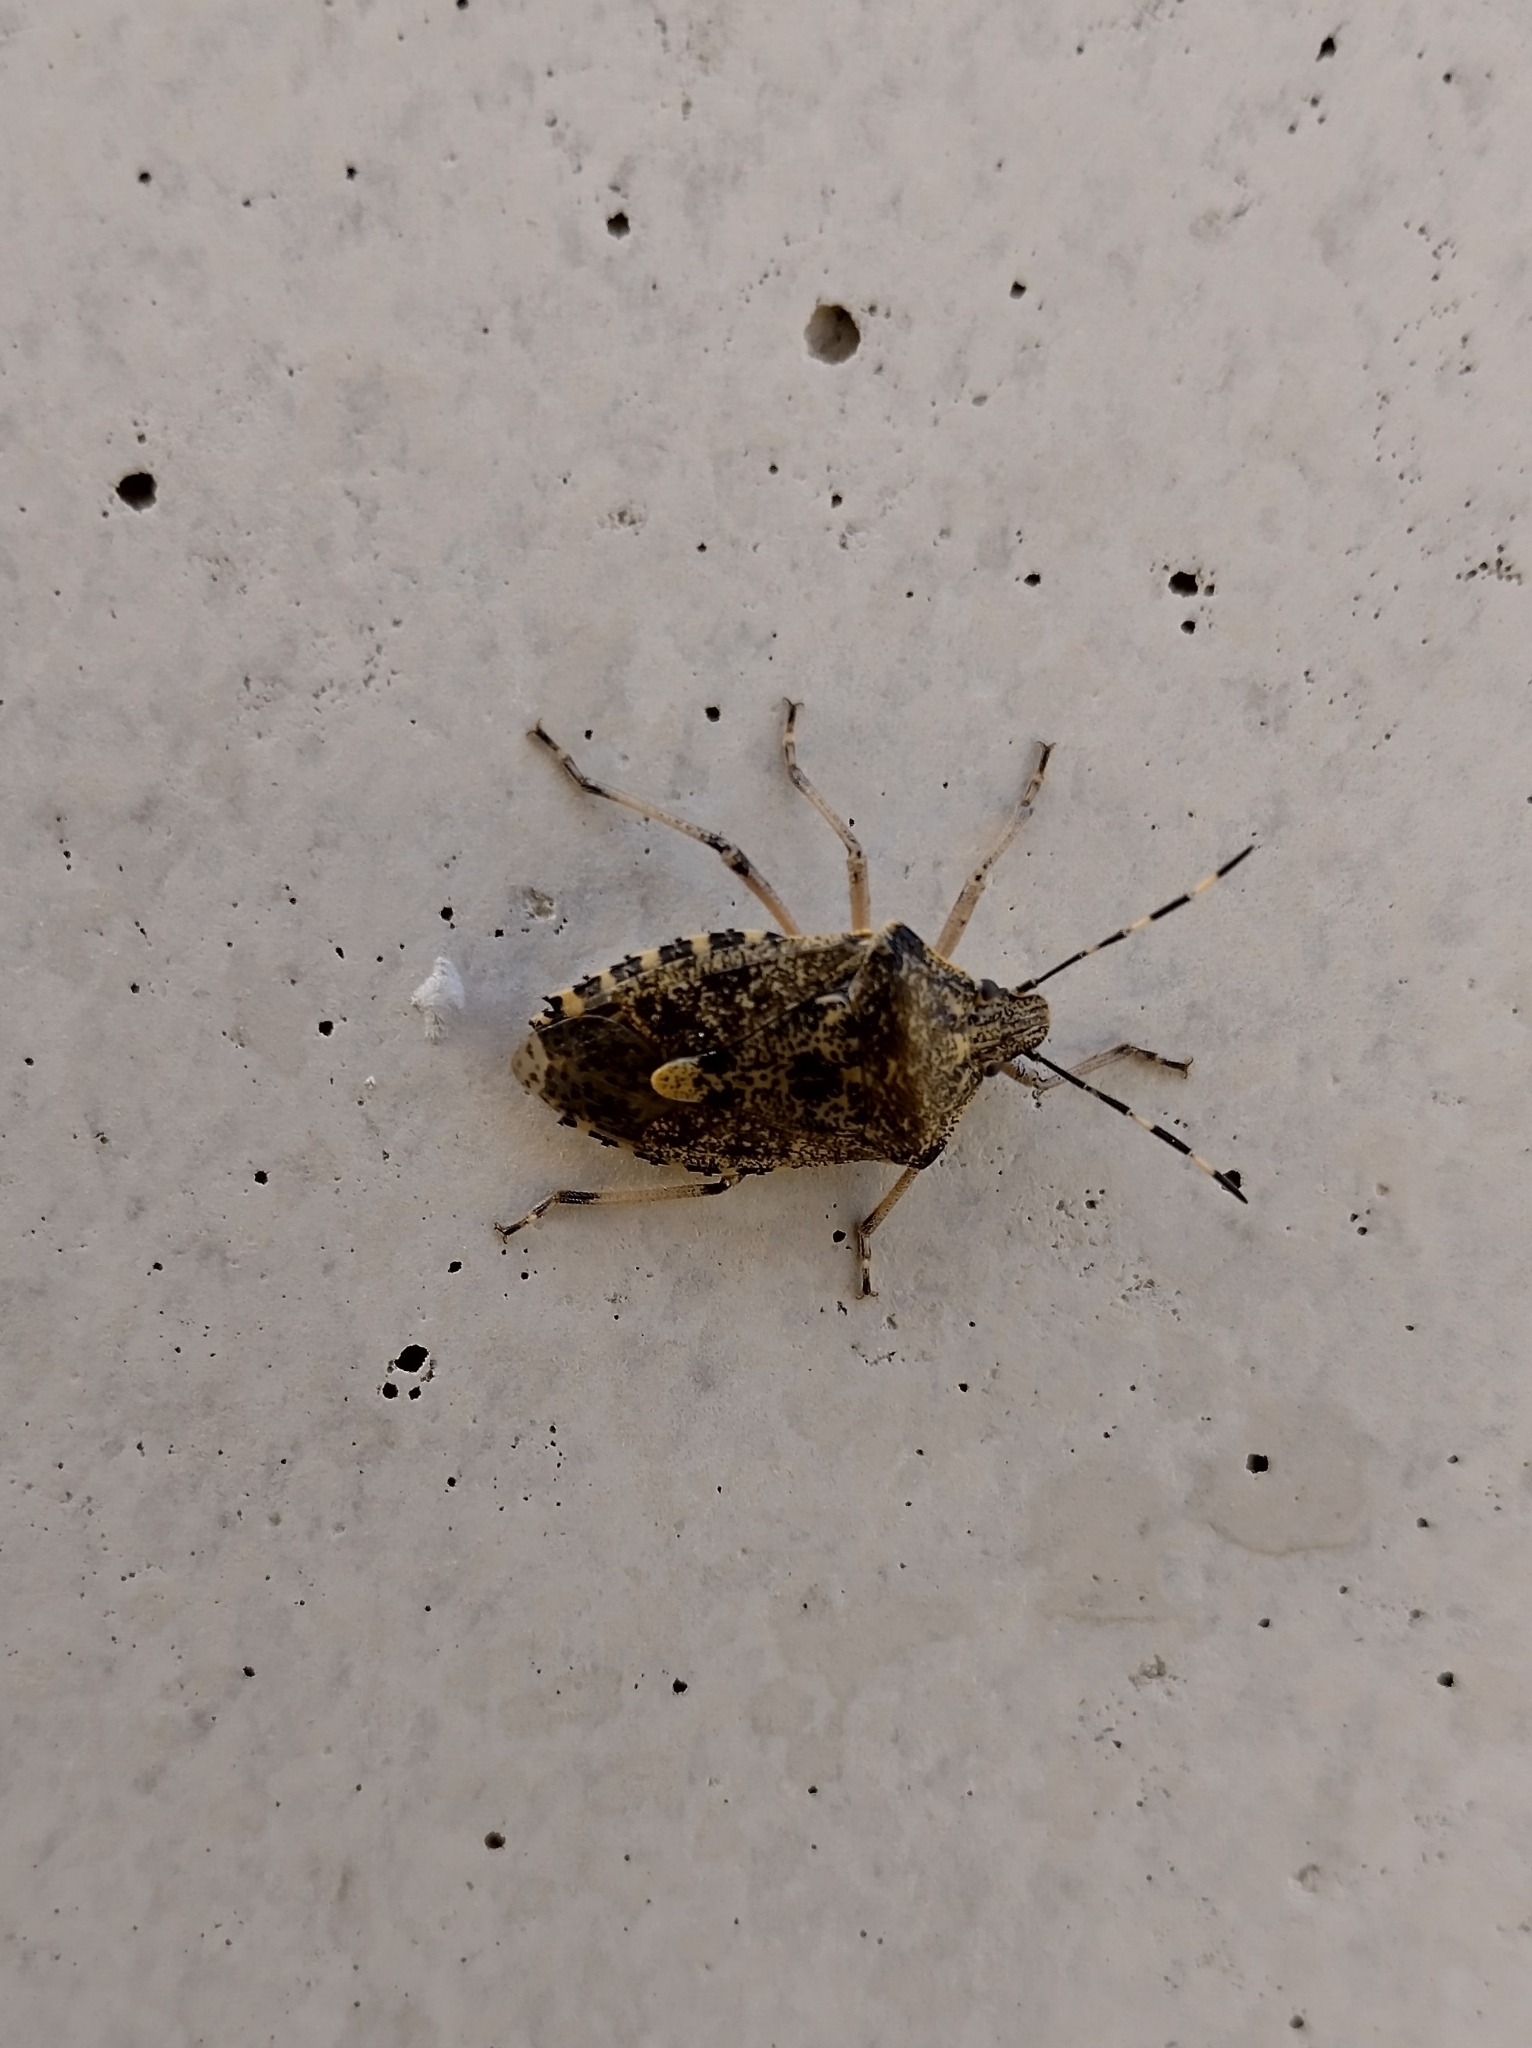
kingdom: Animalia
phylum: Arthropoda
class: Insecta
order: Hemiptera
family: Pentatomidae
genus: Rhaphigaster
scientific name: Rhaphigaster nebulosa
